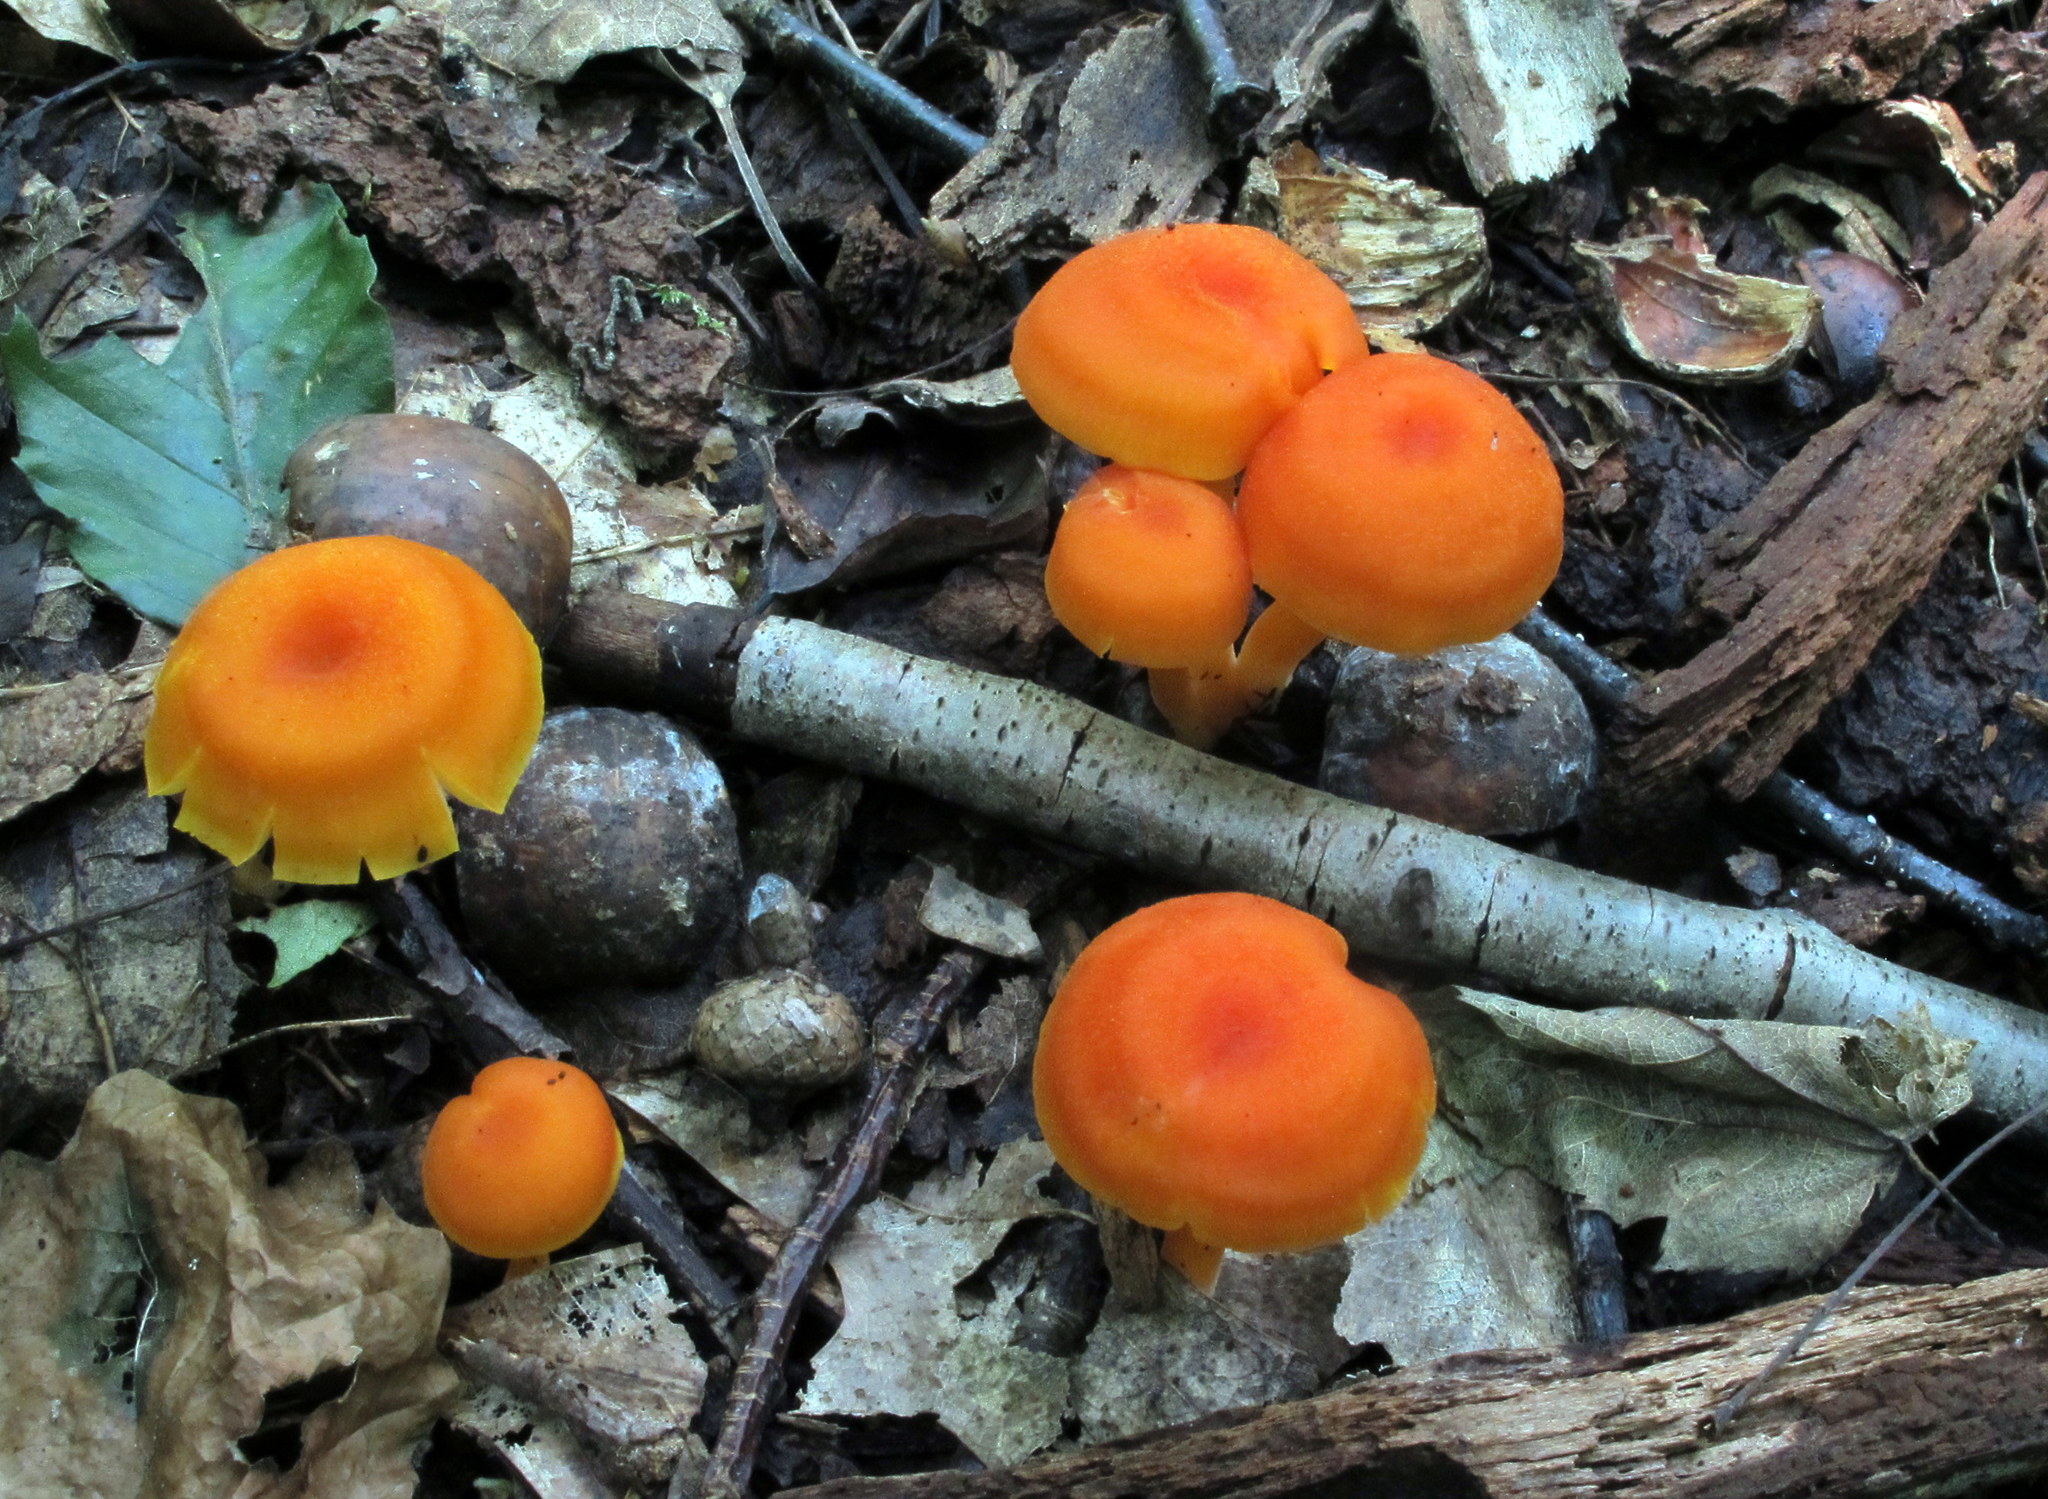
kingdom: Fungi
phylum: Basidiomycota
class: Agaricomycetes
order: Agaricales
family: Hygrophoraceae
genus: Hygrocybe
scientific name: Hygrocybe miniata
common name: Vermilion waxcap
